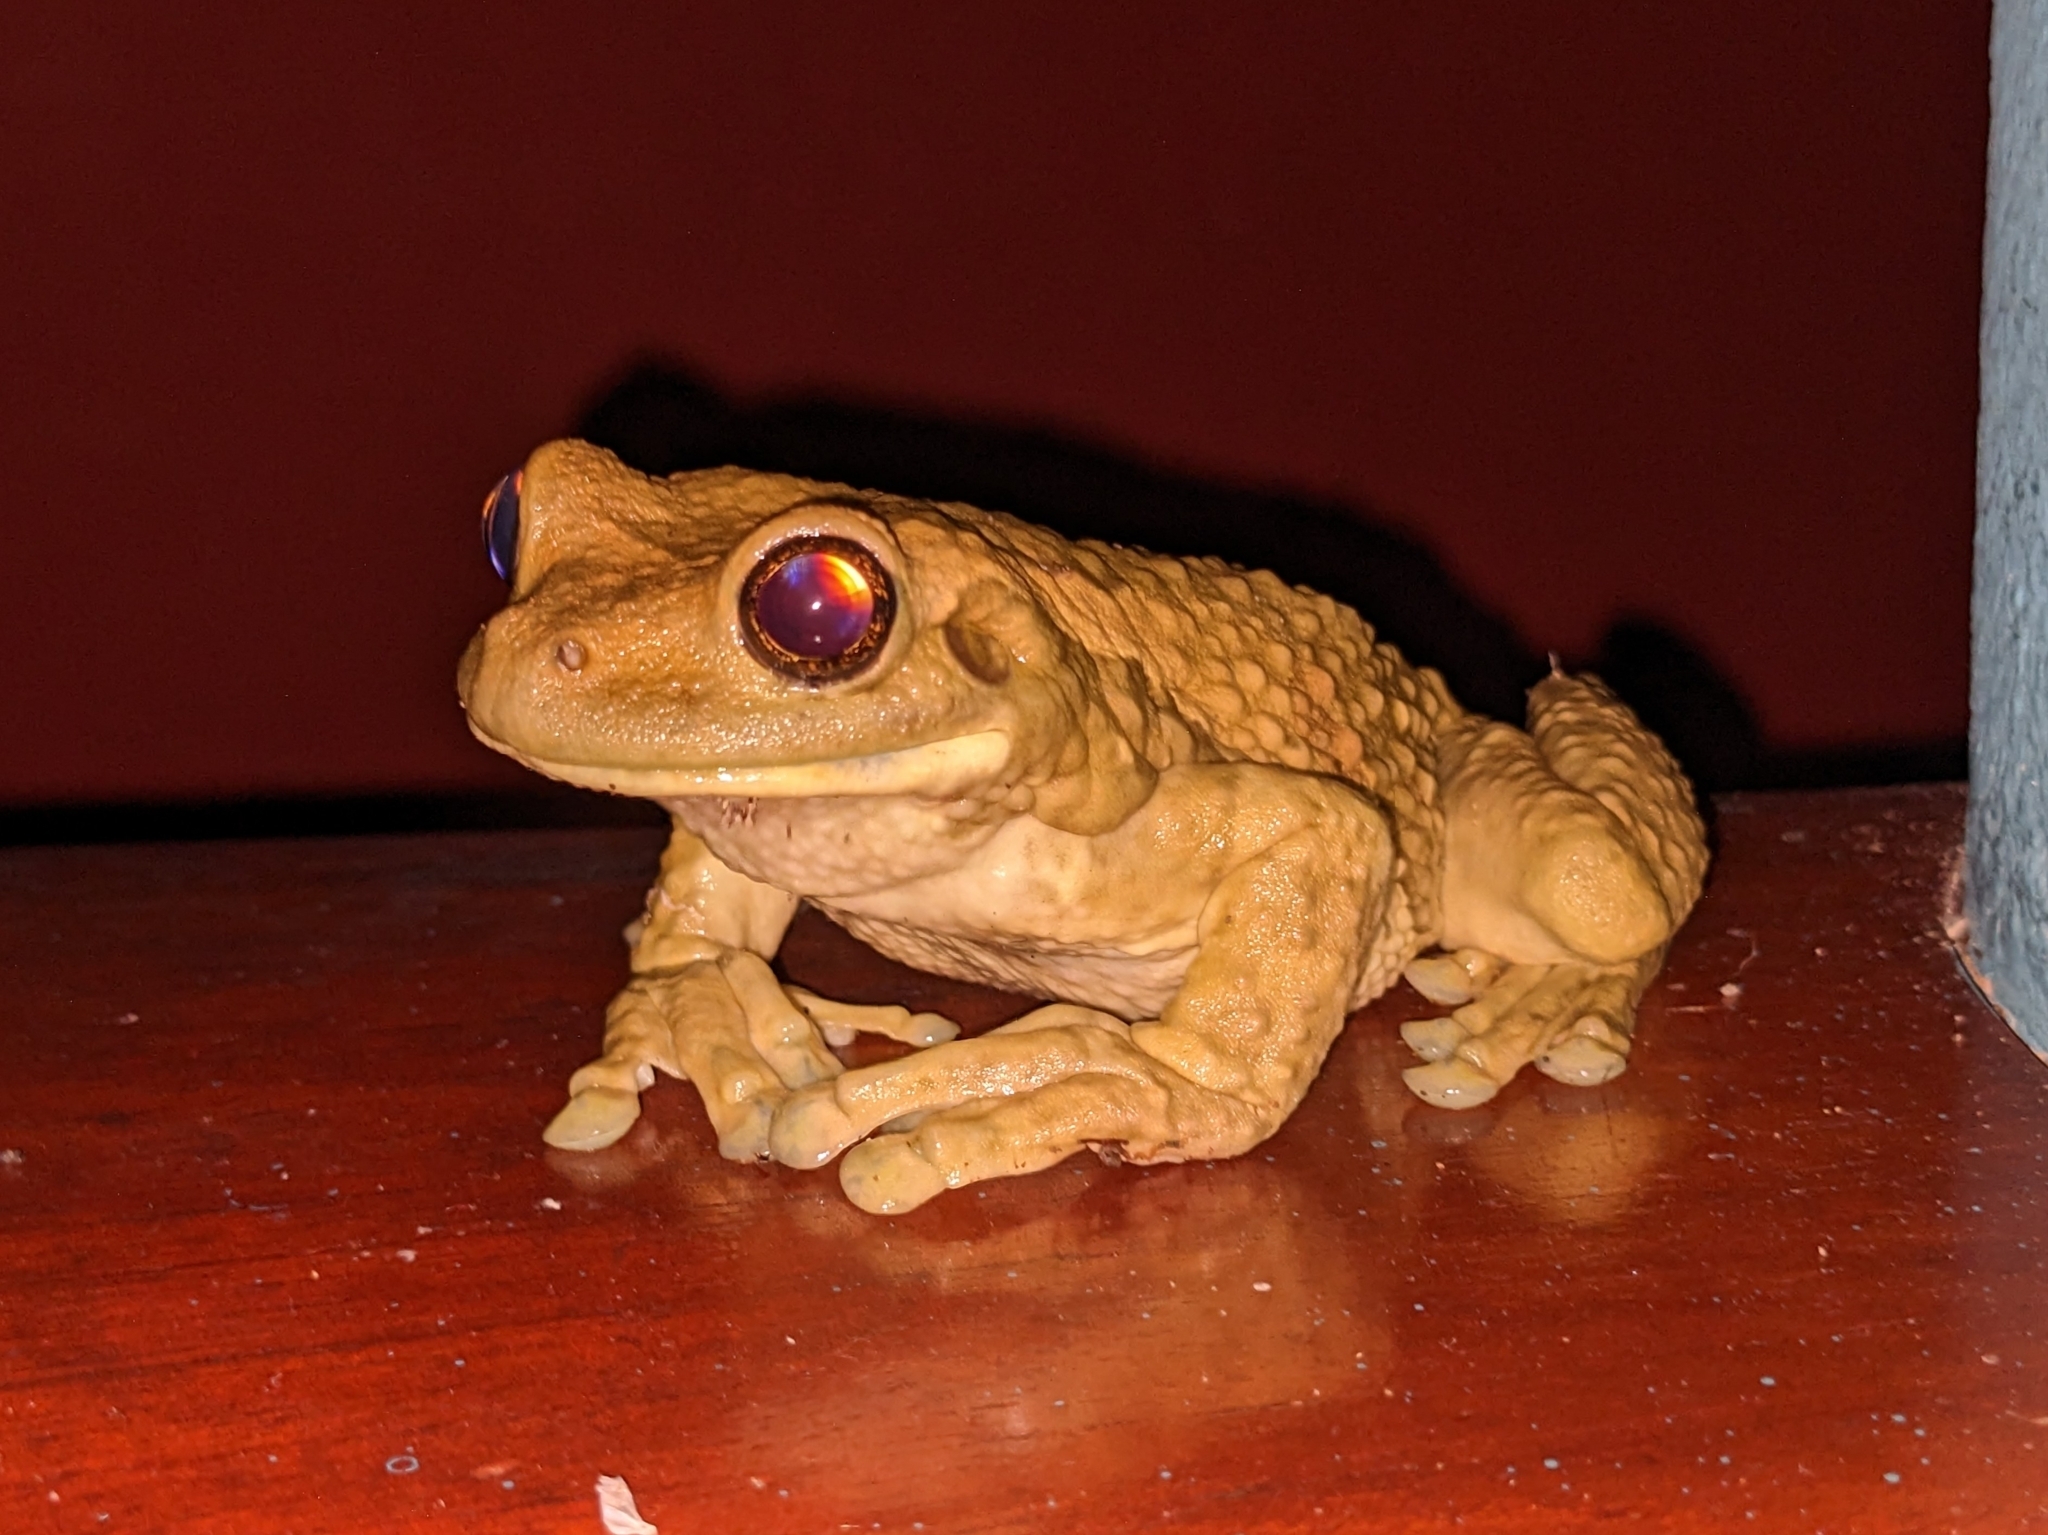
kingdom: Animalia
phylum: Chordata
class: Amphibia
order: Anura
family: Hylidae
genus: Trachycephalus
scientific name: Trachycephalus vermiculatus
